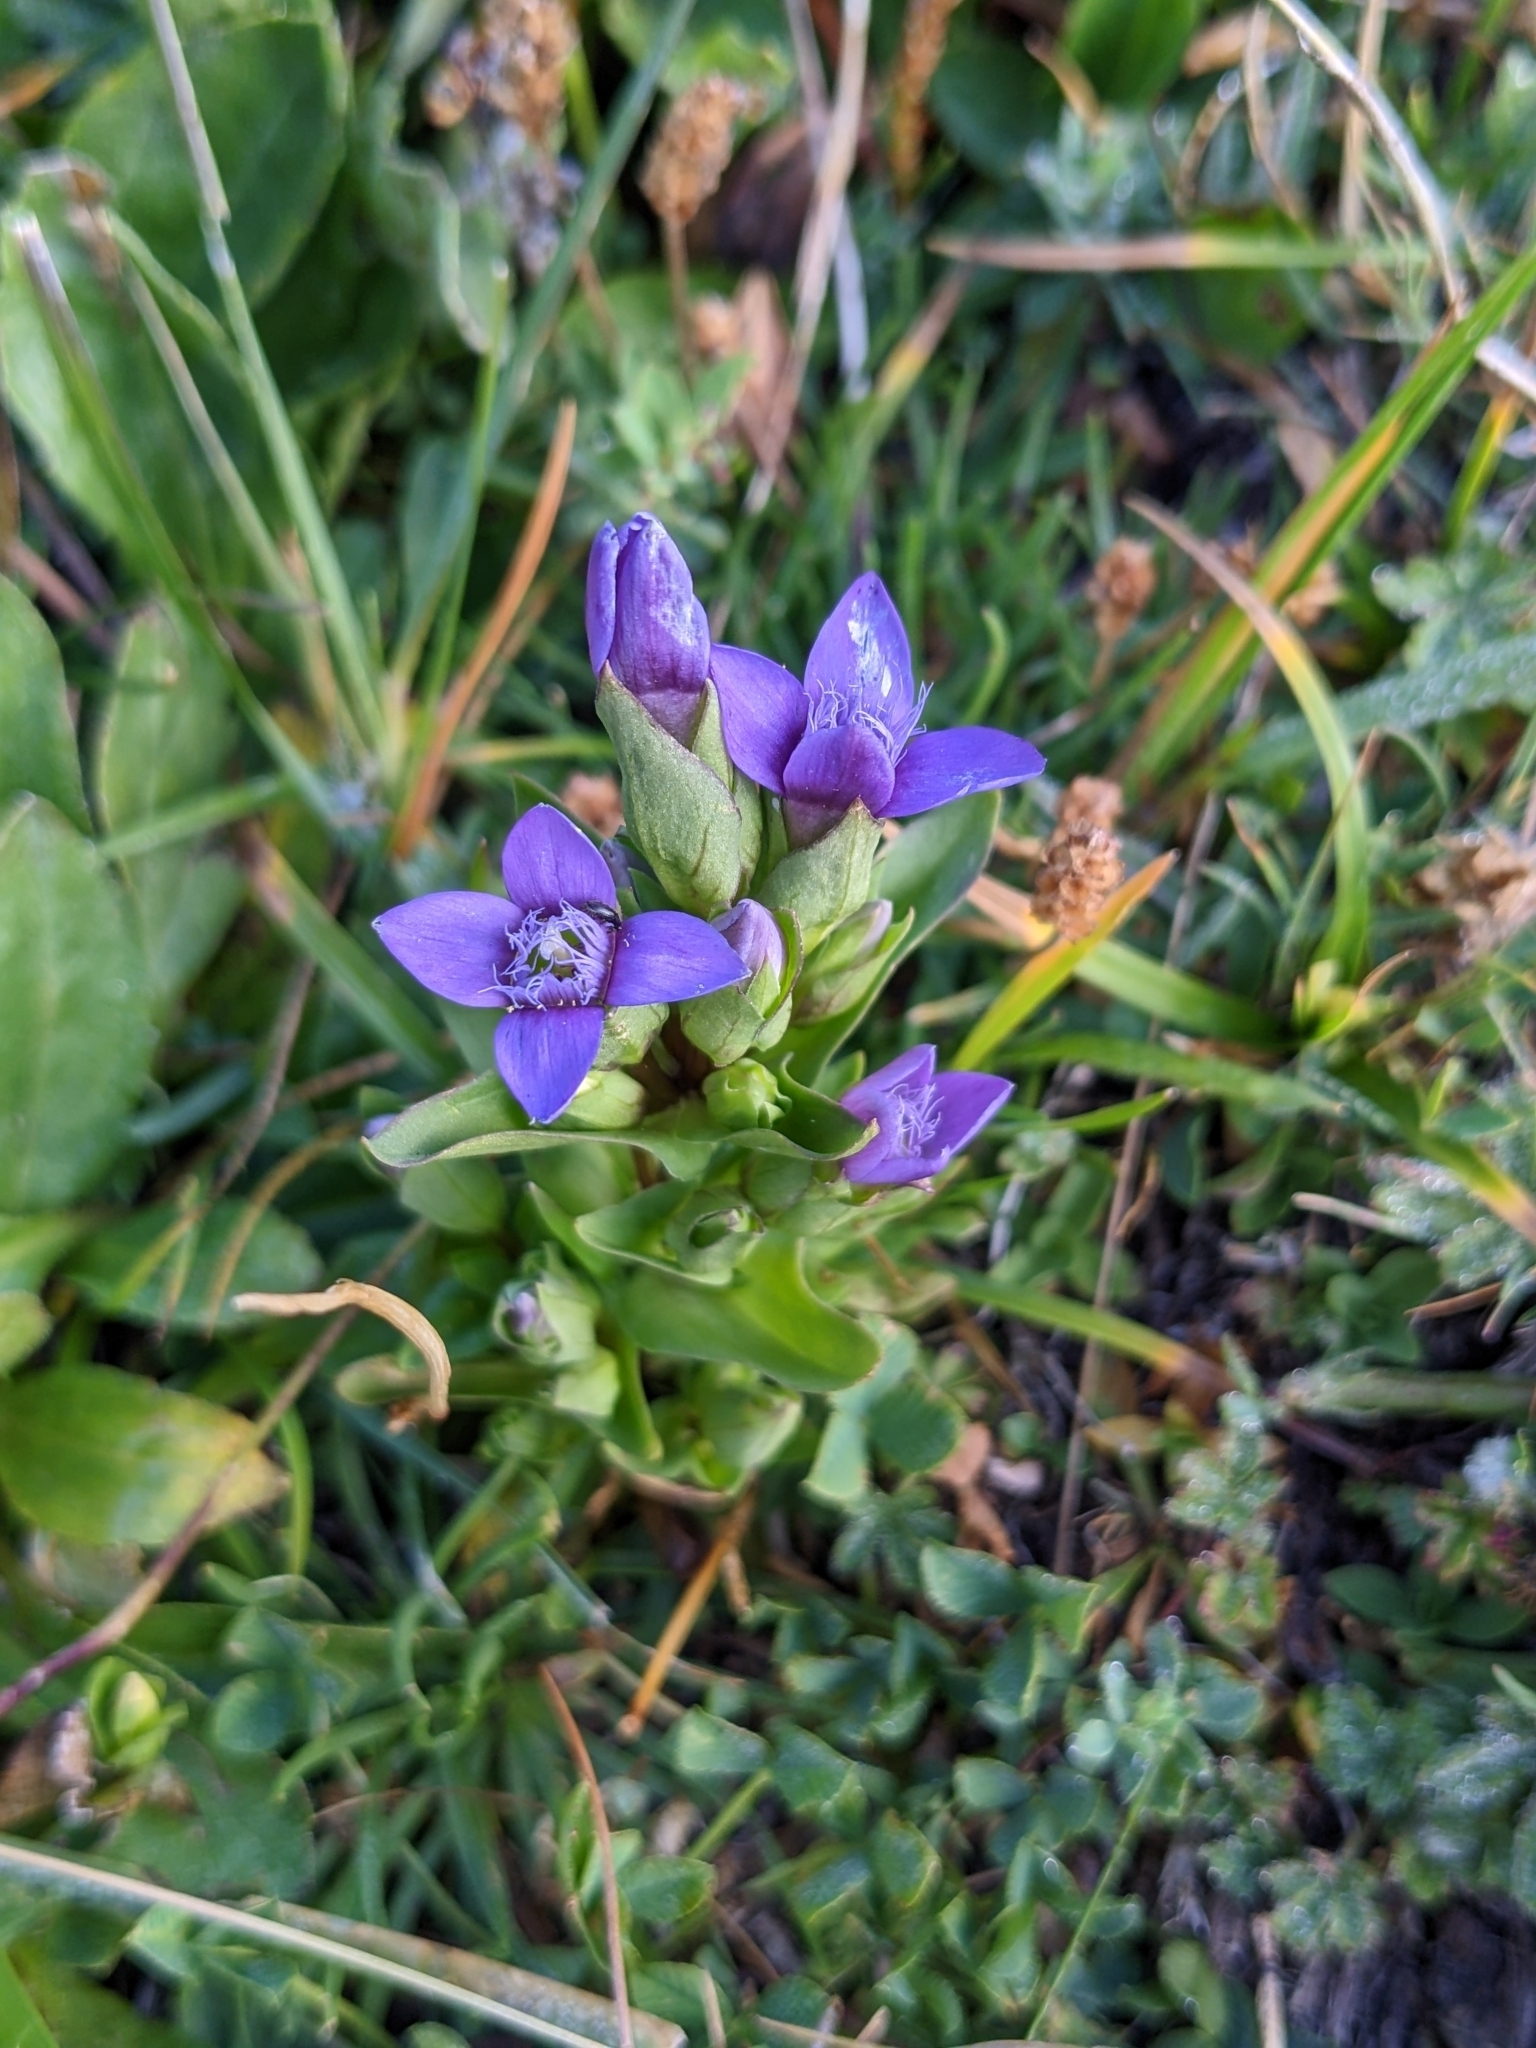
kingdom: Plantae
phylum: Tracheophyta
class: Magnoliopsida
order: Gentianales
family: Gentianaceae
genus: Gentianella
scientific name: Gentianella campestris
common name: Field gentian
